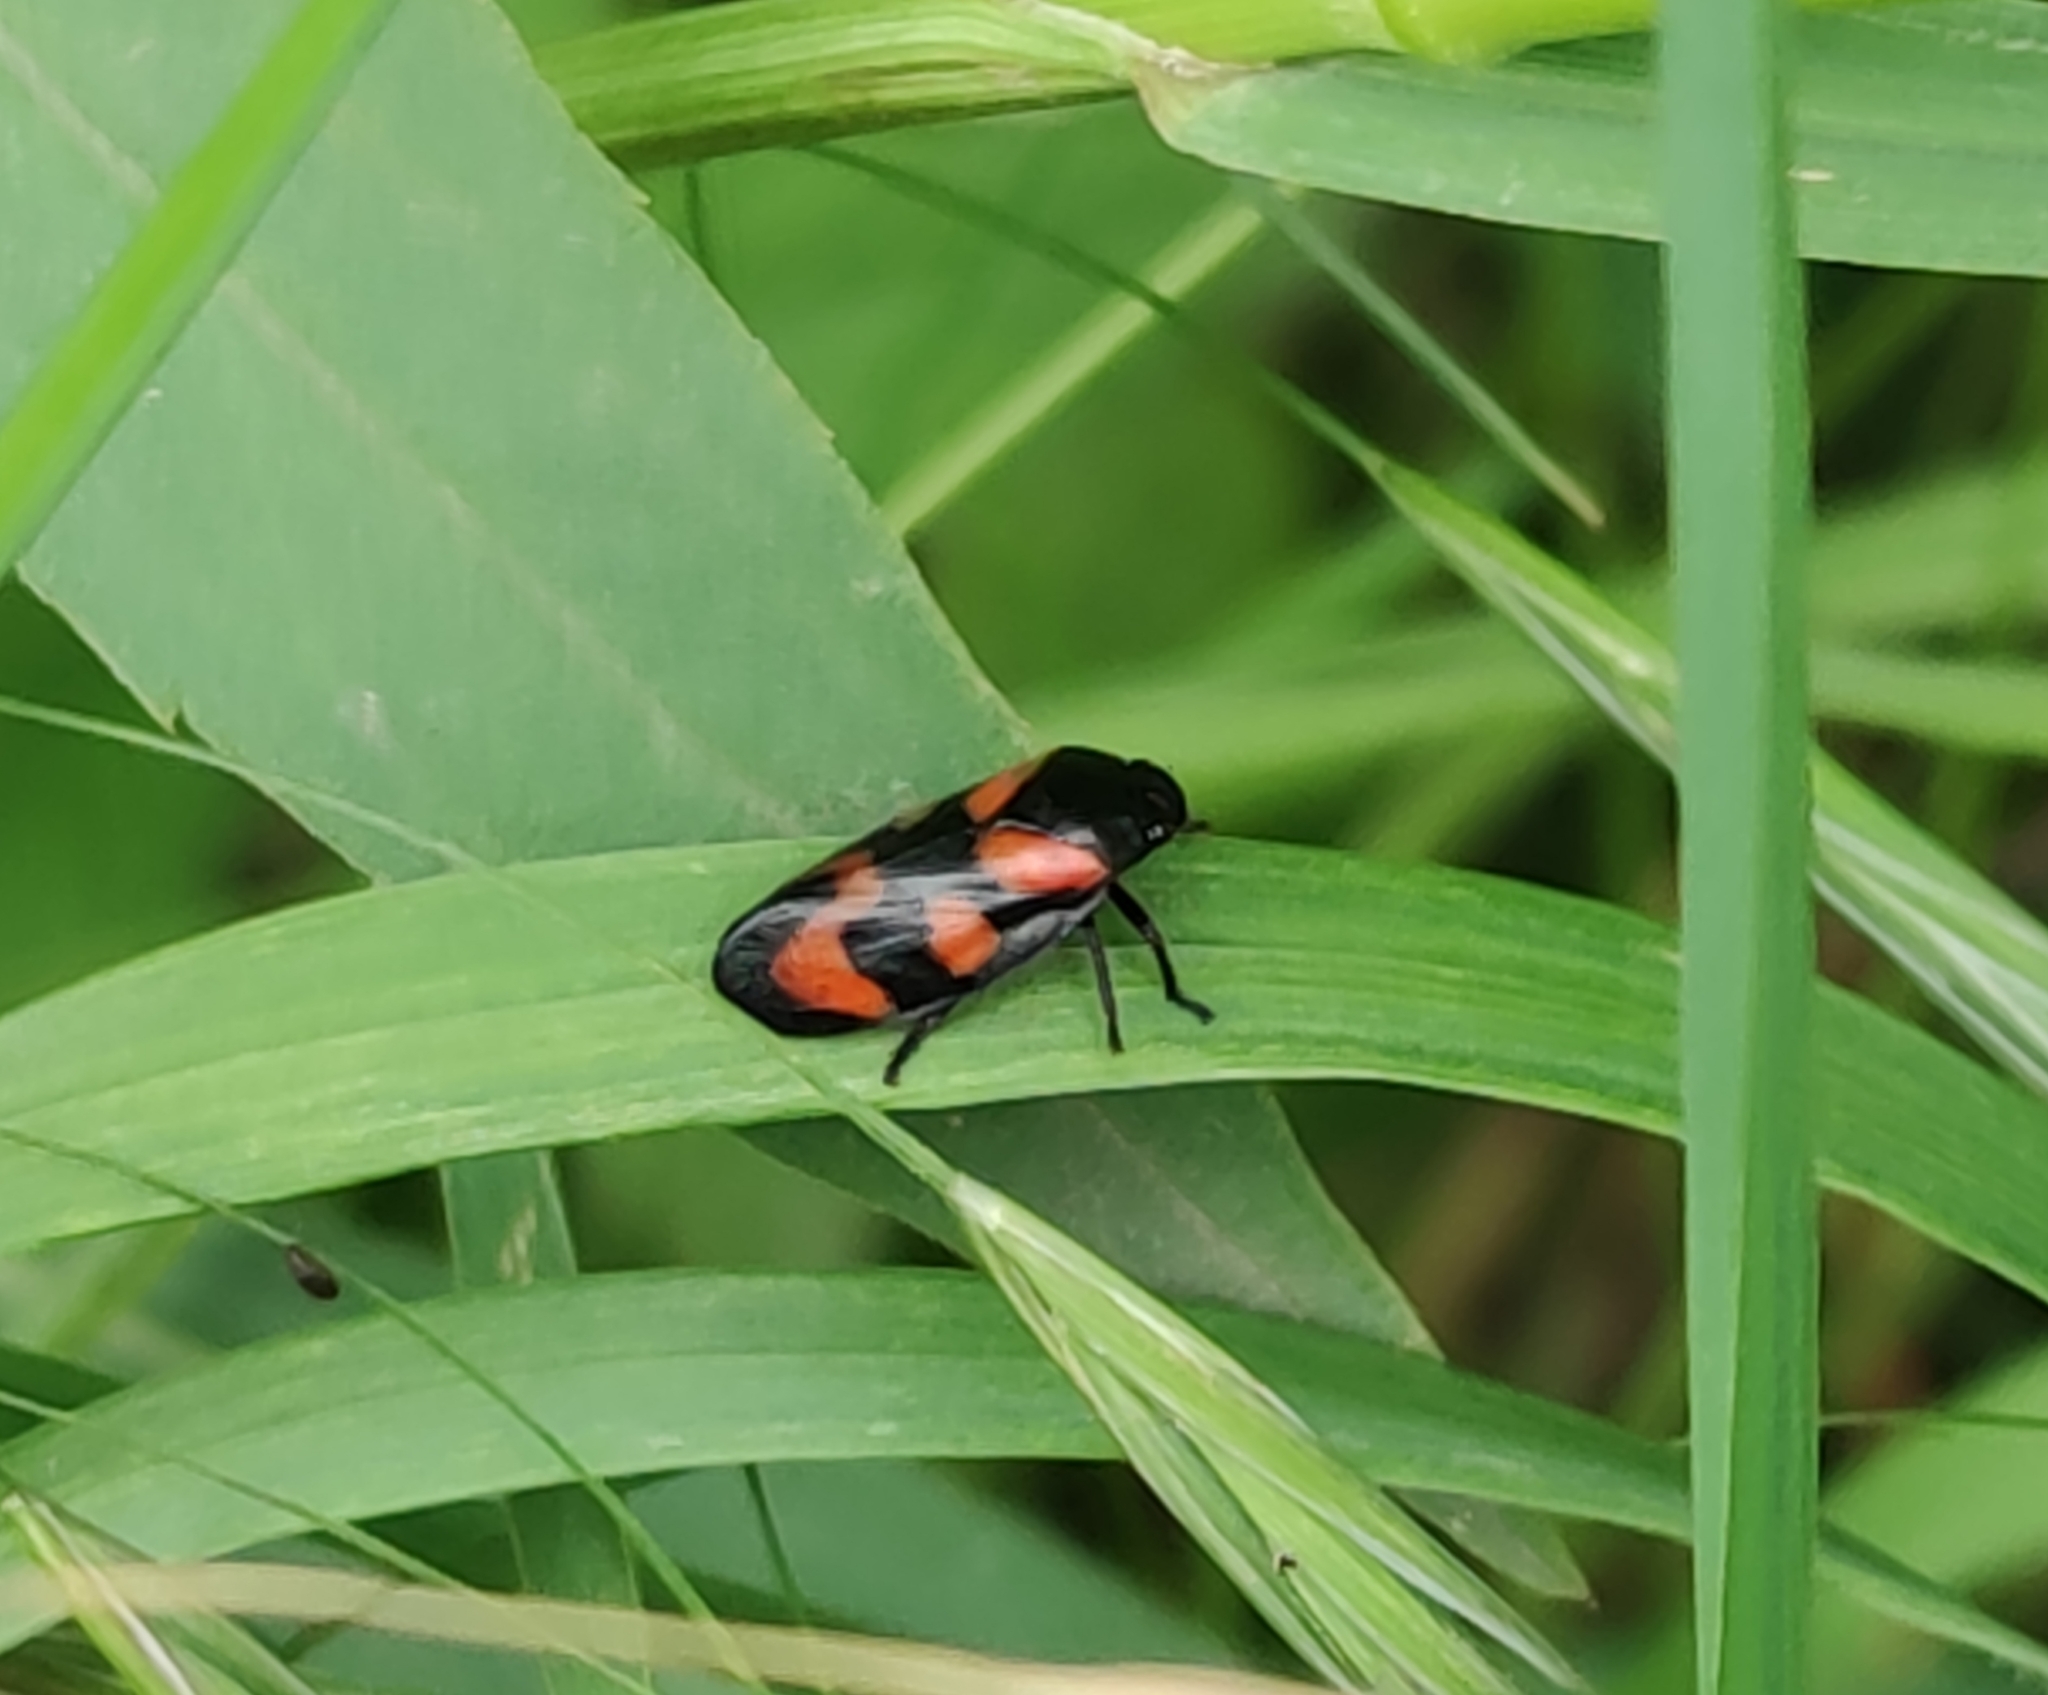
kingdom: Animalia
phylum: Arthropoda
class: Insecta
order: Hemiptera
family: Cercopidae
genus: Cercopis
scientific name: Cercopis vulnerata
